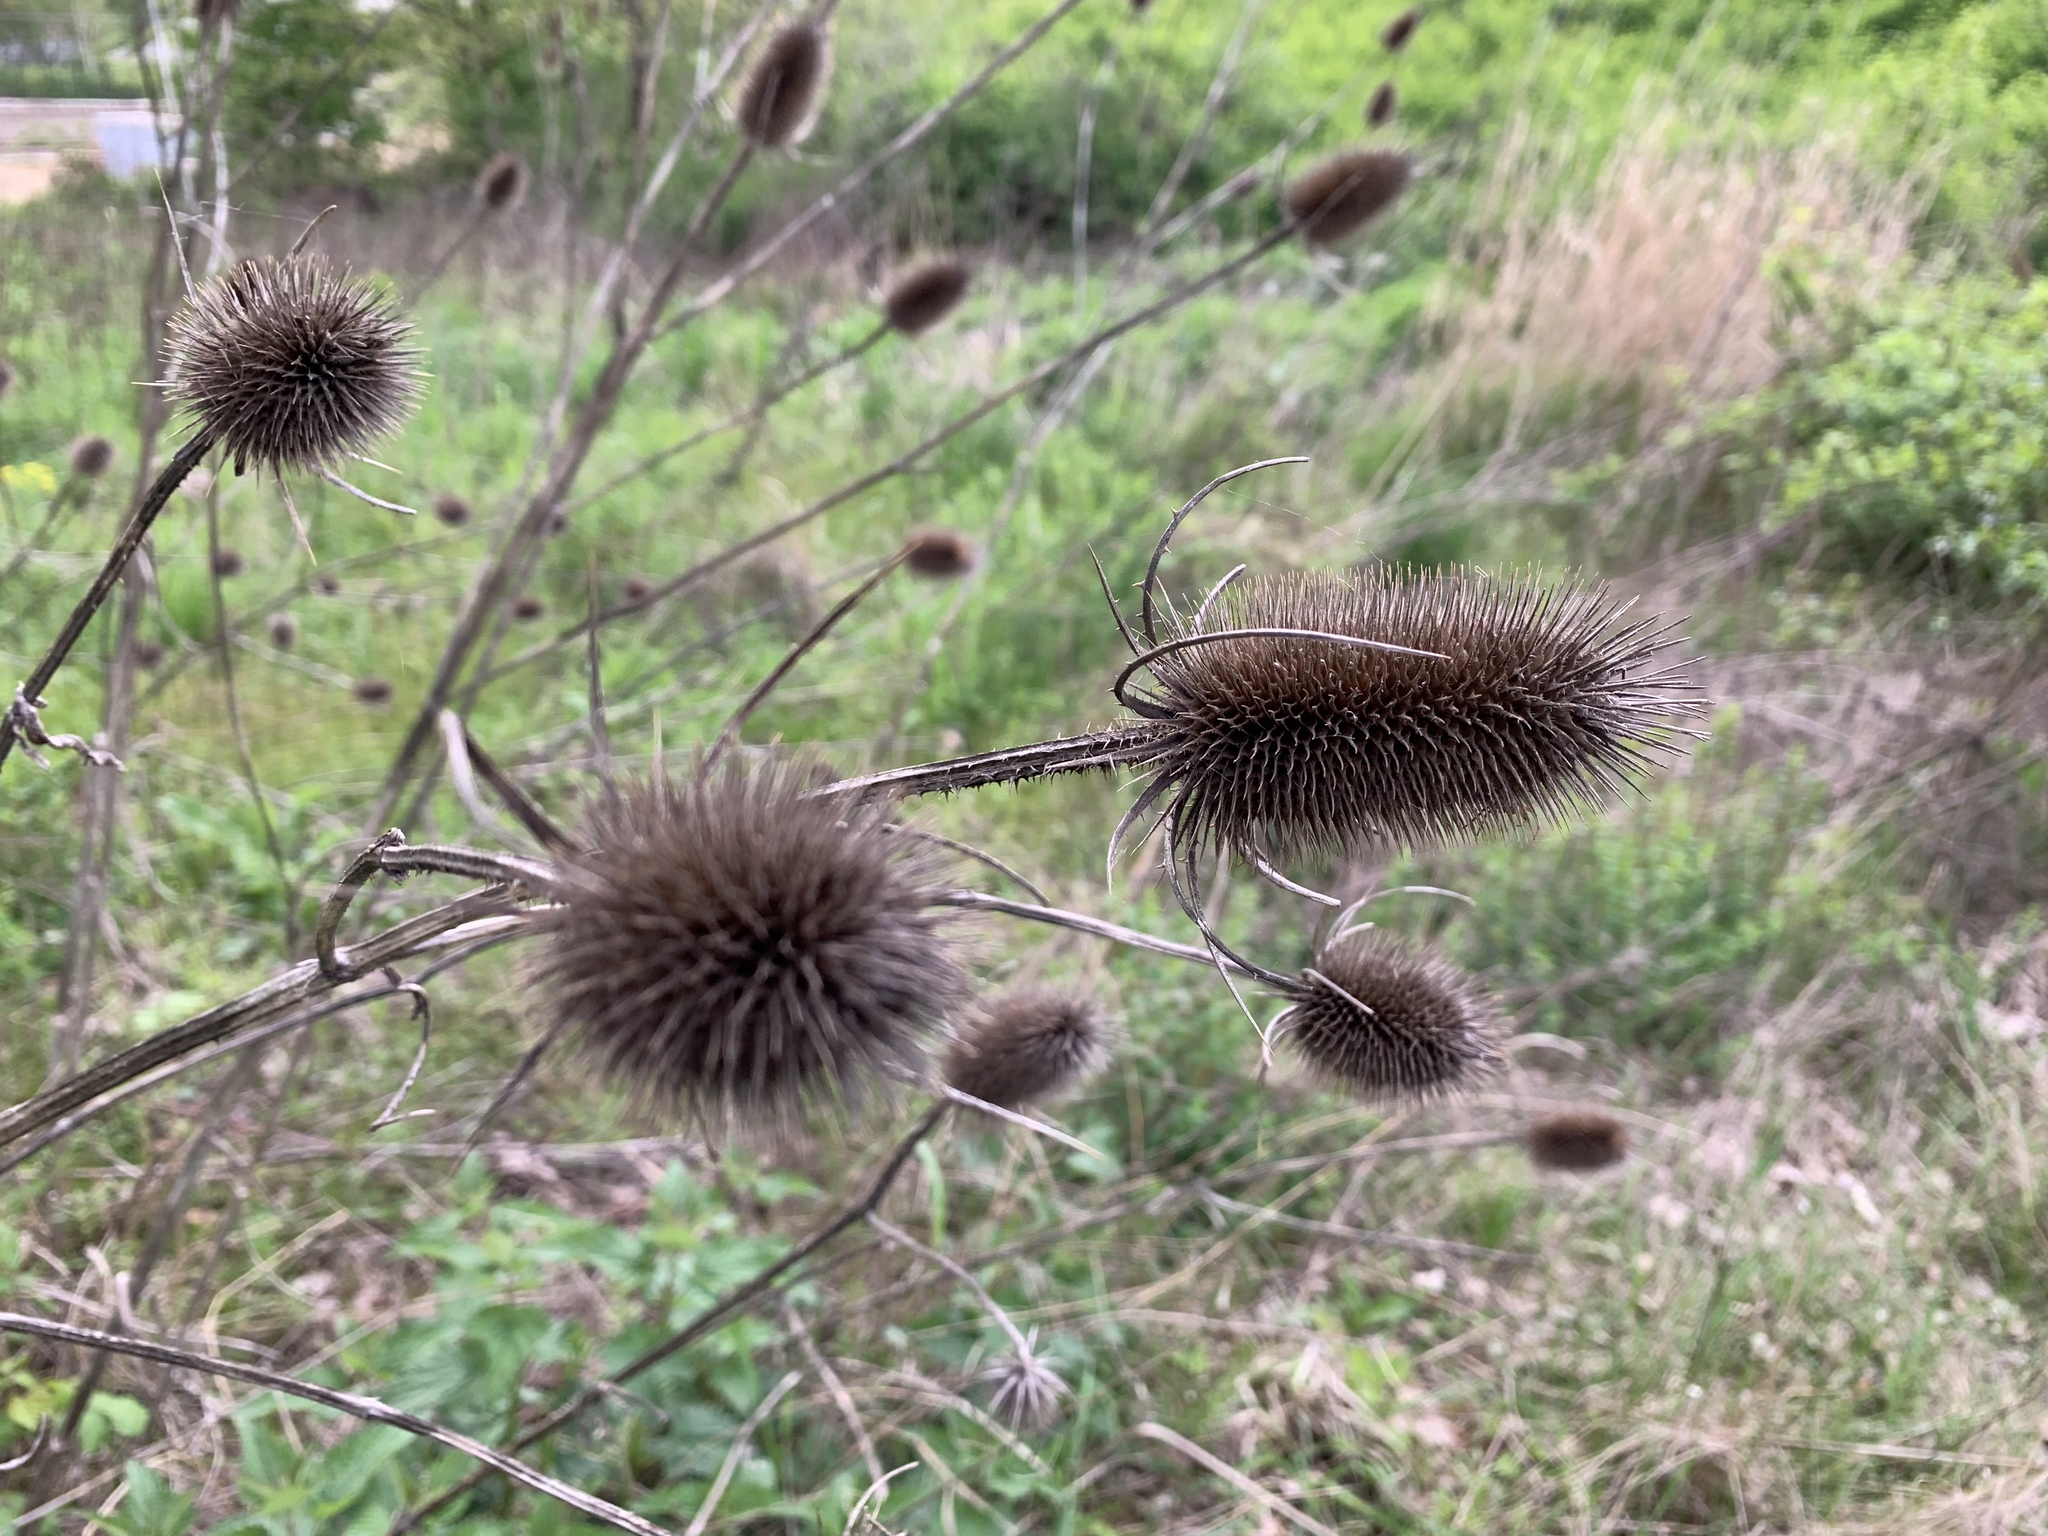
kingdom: Plantae
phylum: Tracheophyta
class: Magnoliopsida
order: Dipsacales
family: Caprifoliaceae
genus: Dipsacus
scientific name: Dipsacus fullonum
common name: Teasel
